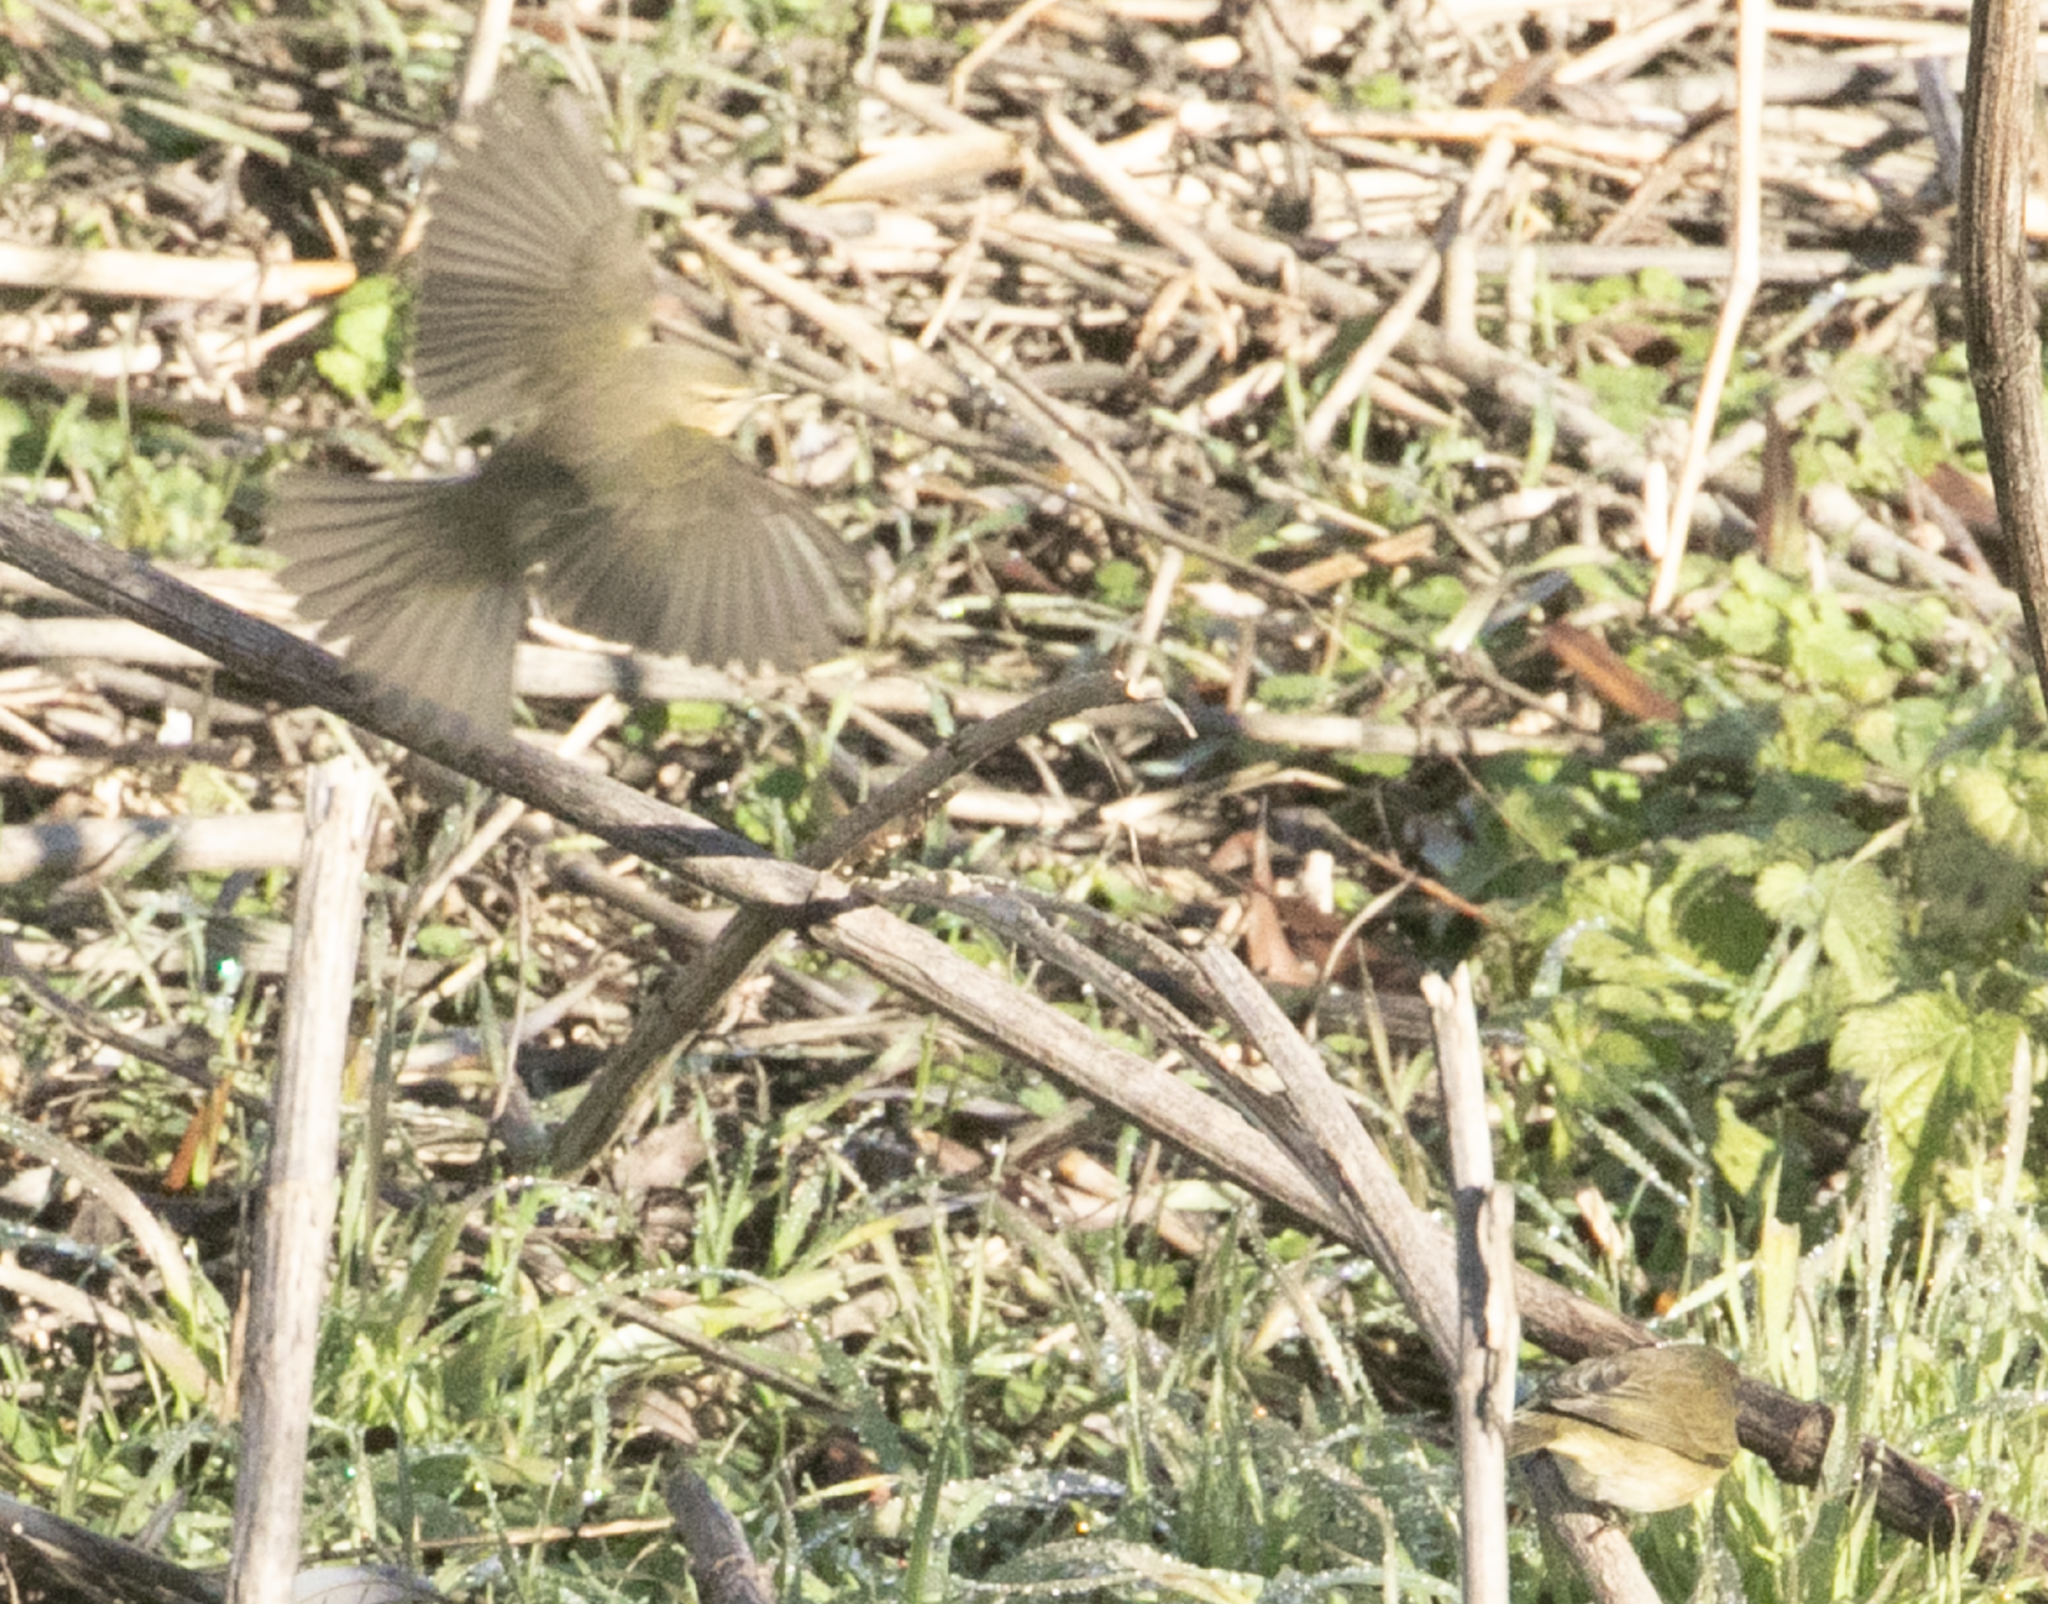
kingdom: Animalia
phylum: Chordata
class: Aves
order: Passeriformes
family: Phylloscopidae
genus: Phylloscopus
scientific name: Phylloscopus collybita
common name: Common chiffchaff
